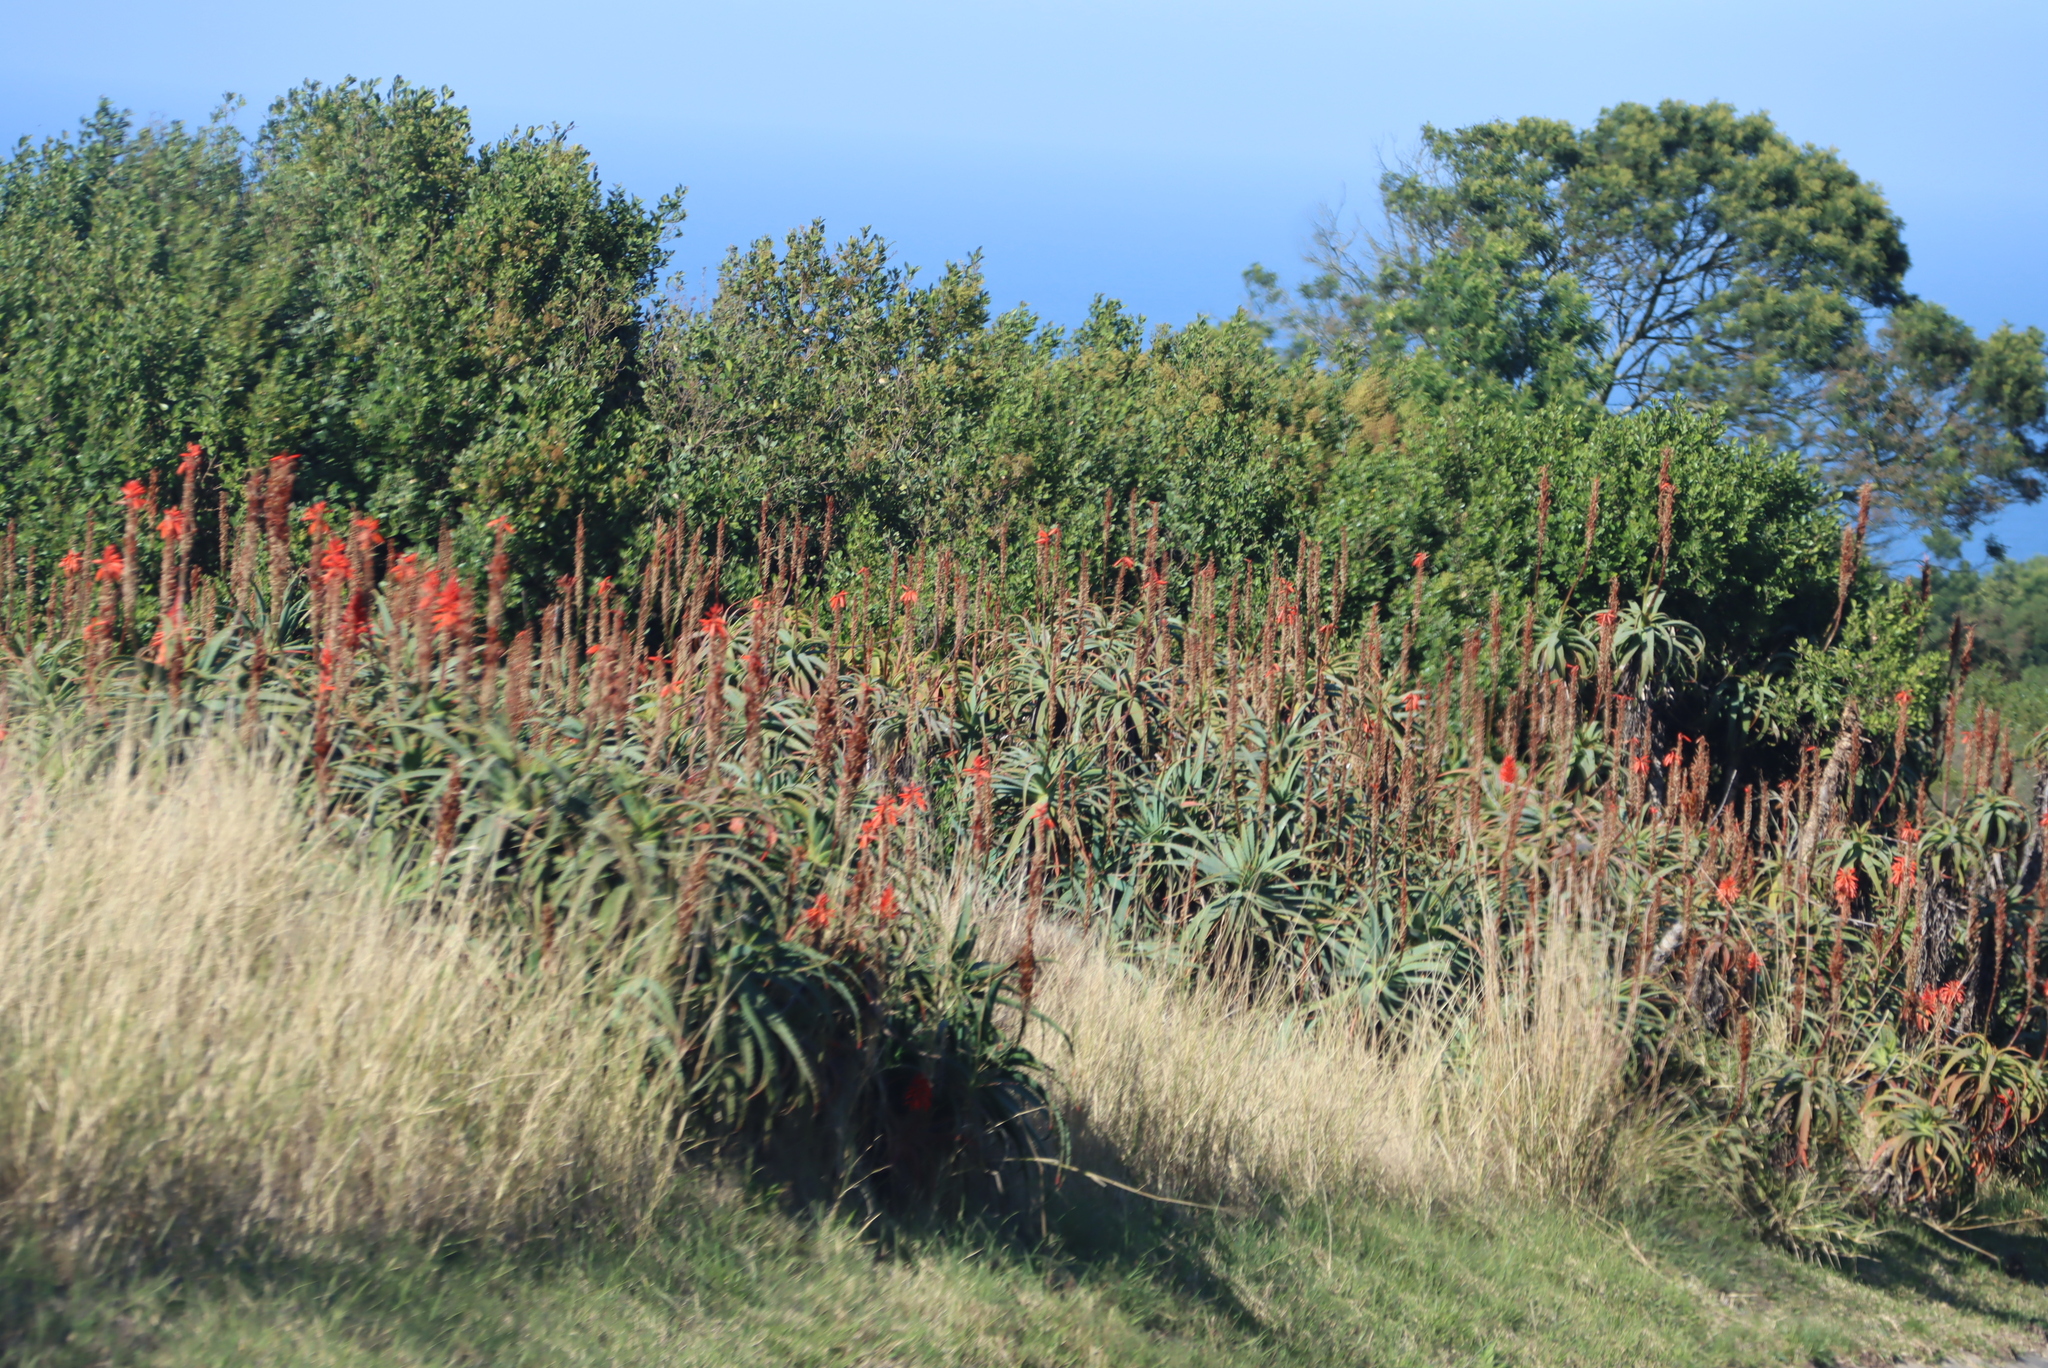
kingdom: Plantae
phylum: Tracheophyta
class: Liliopsida
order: Asparagales
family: Asphodelaceae
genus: Aloe
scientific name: Aloe arborescens
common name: Candelabra aloe
